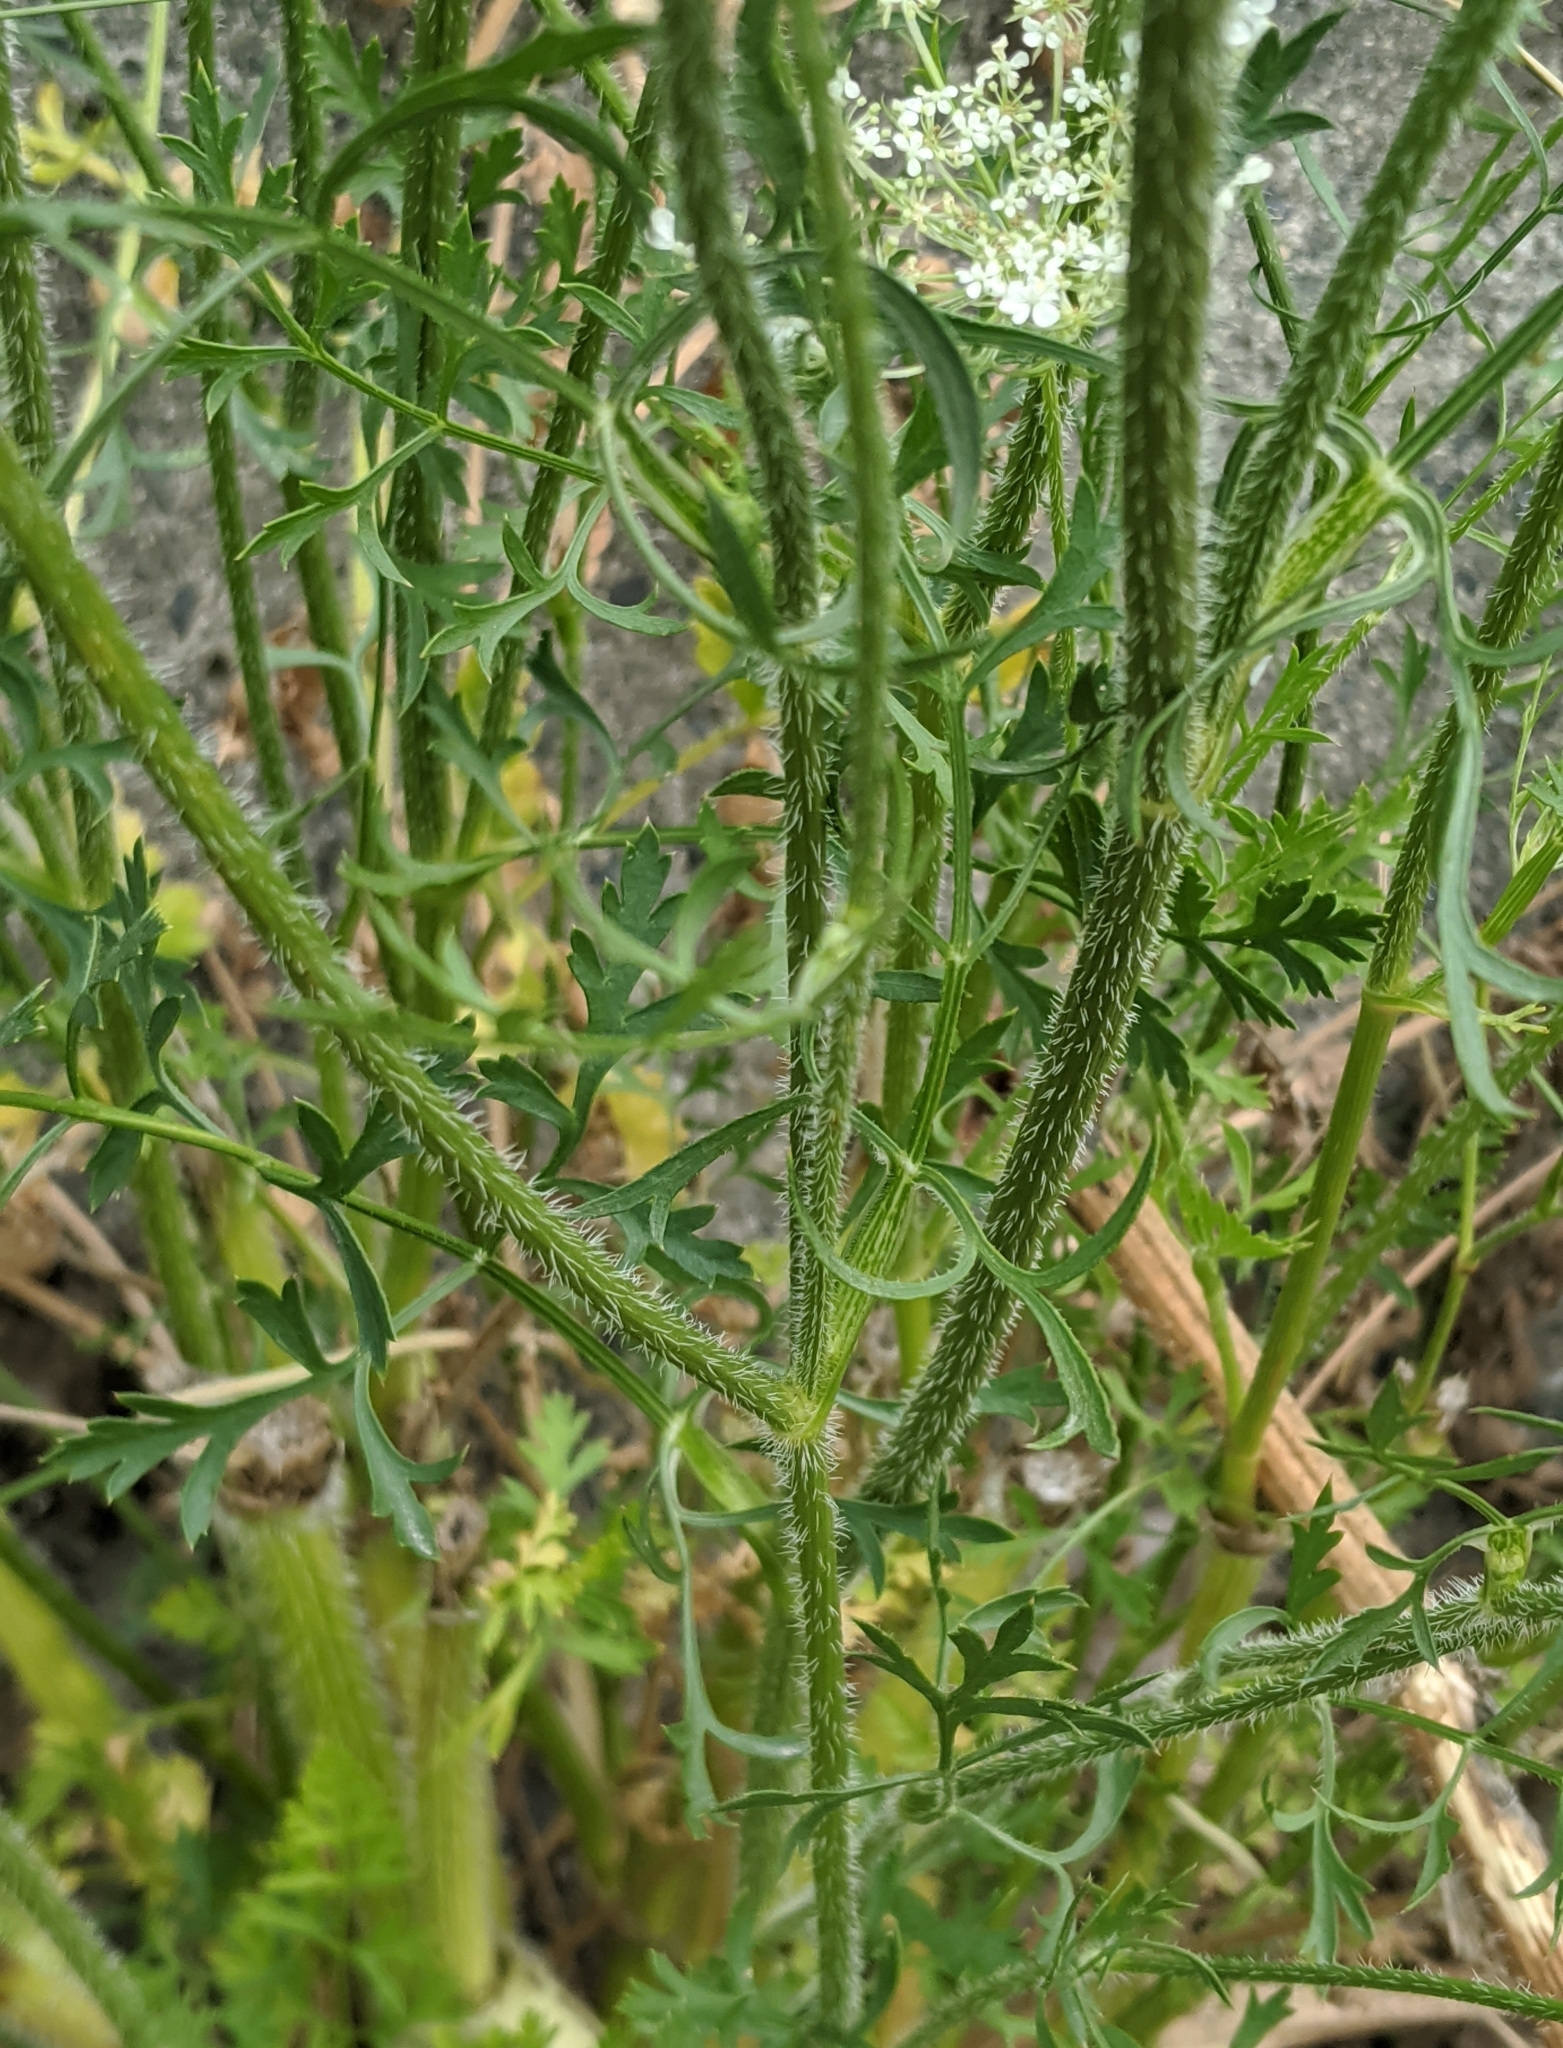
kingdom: Plantae
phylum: Tracheophyta
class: Magnoliopsida
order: Apiales
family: Apiaceae
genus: Daucus
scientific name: Daucus carota
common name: Wild carrot
